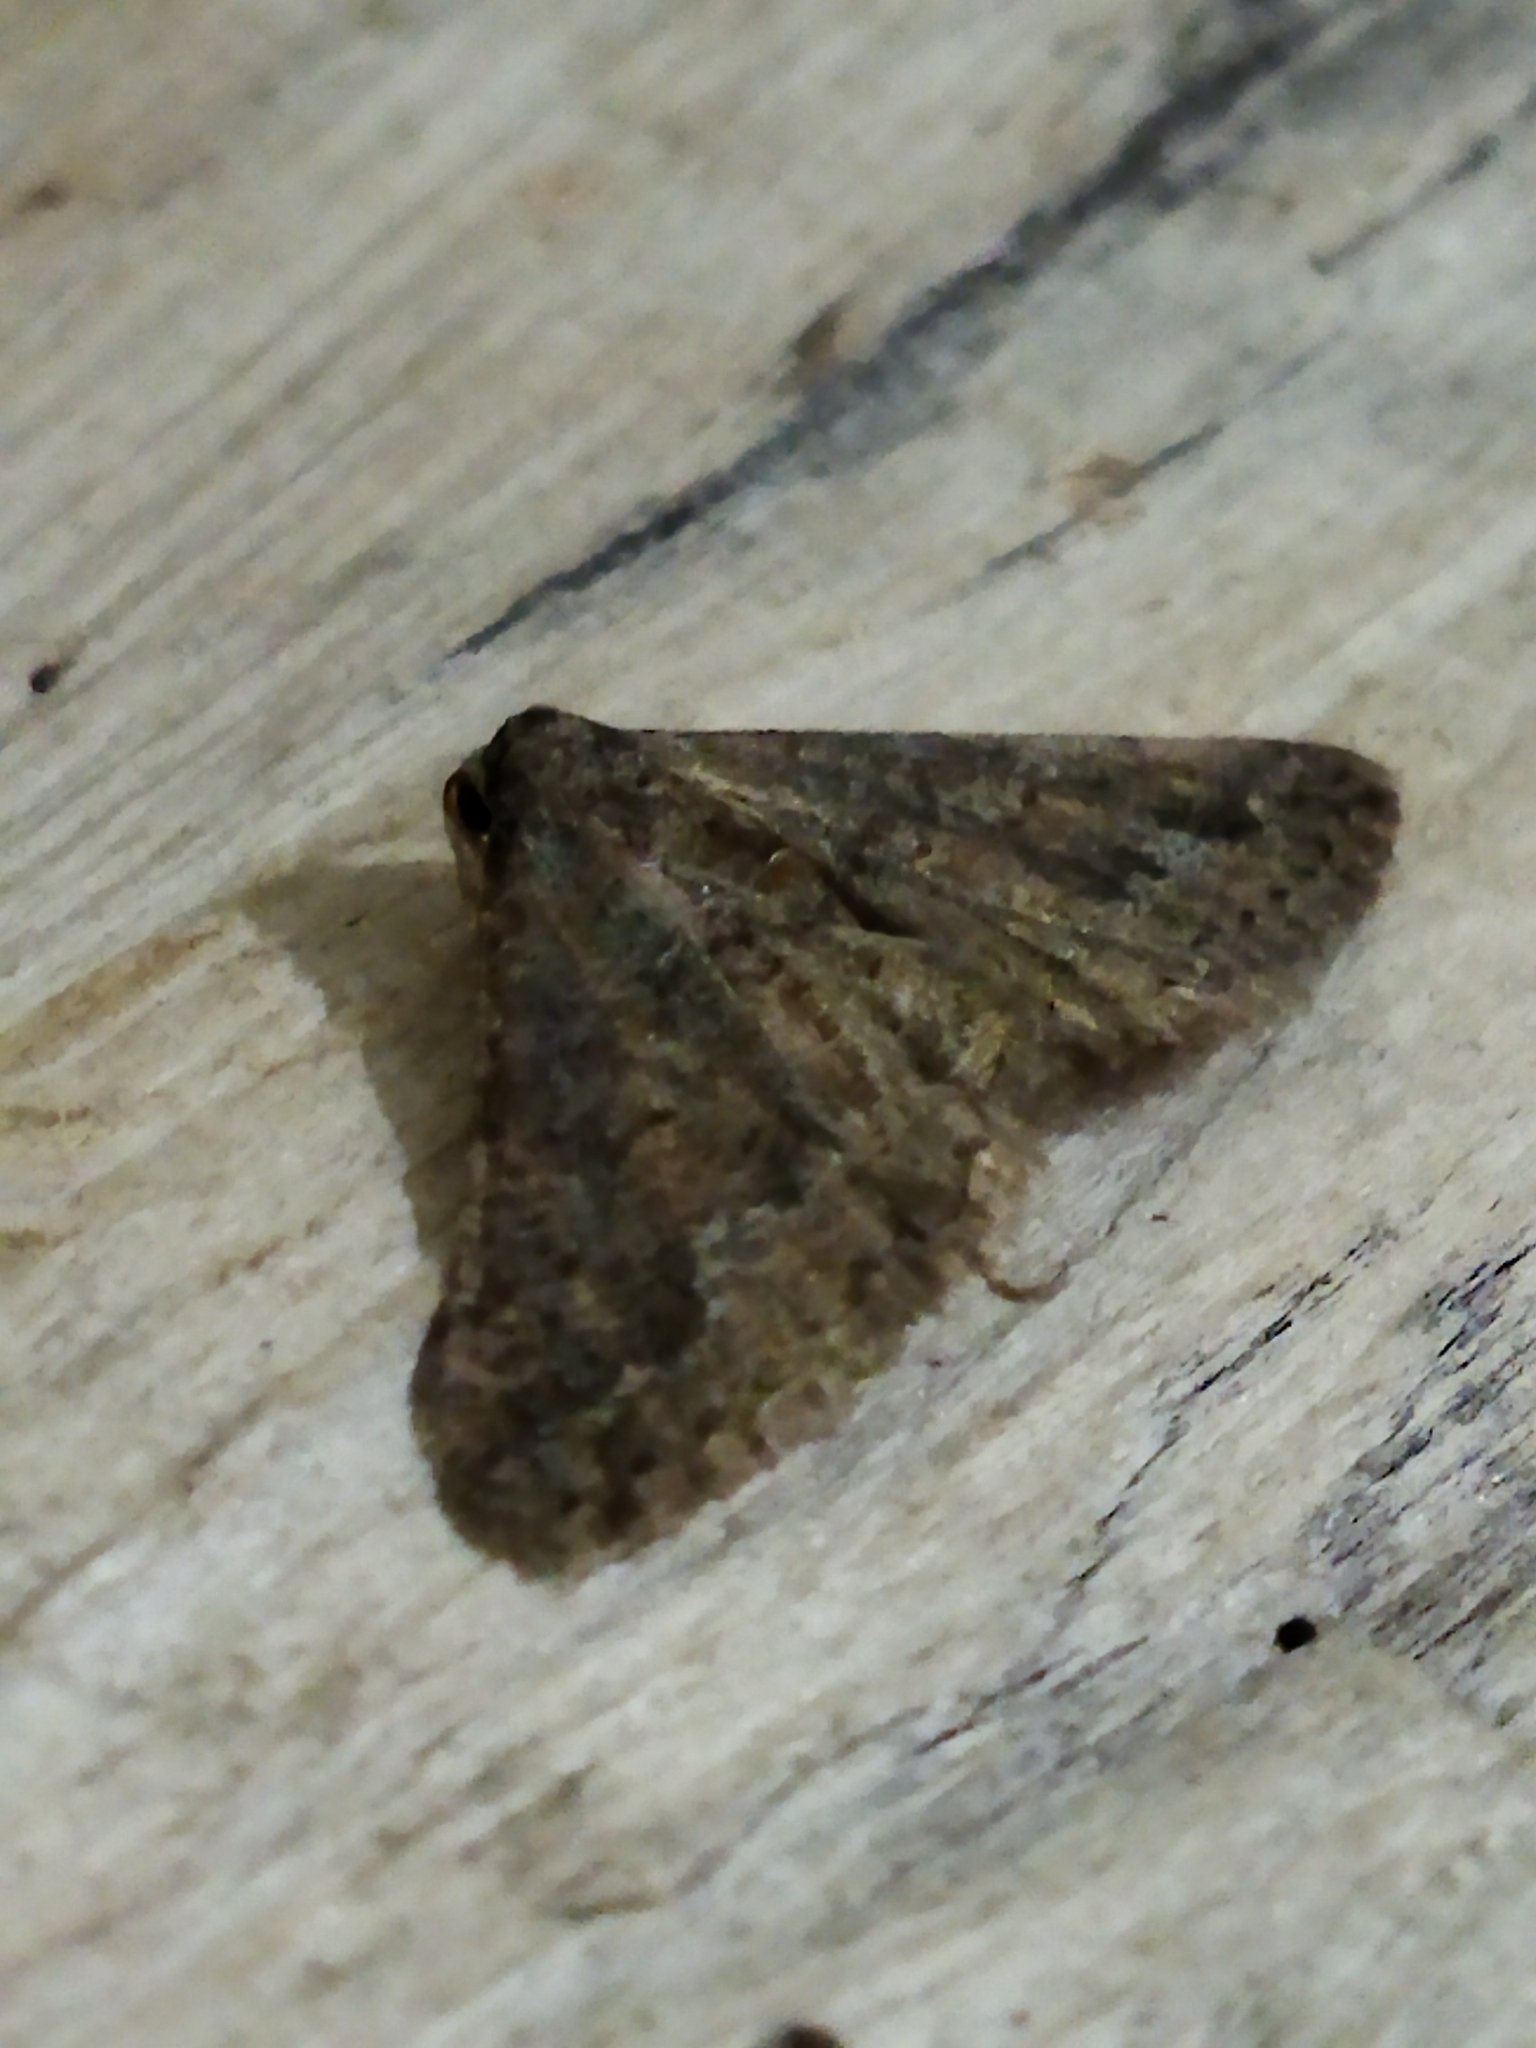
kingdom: Animalia
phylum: Arthropoda
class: Insecta
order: Lepidoptera
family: Geometridae
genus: Agriopis
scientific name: Agriopis bajaria
